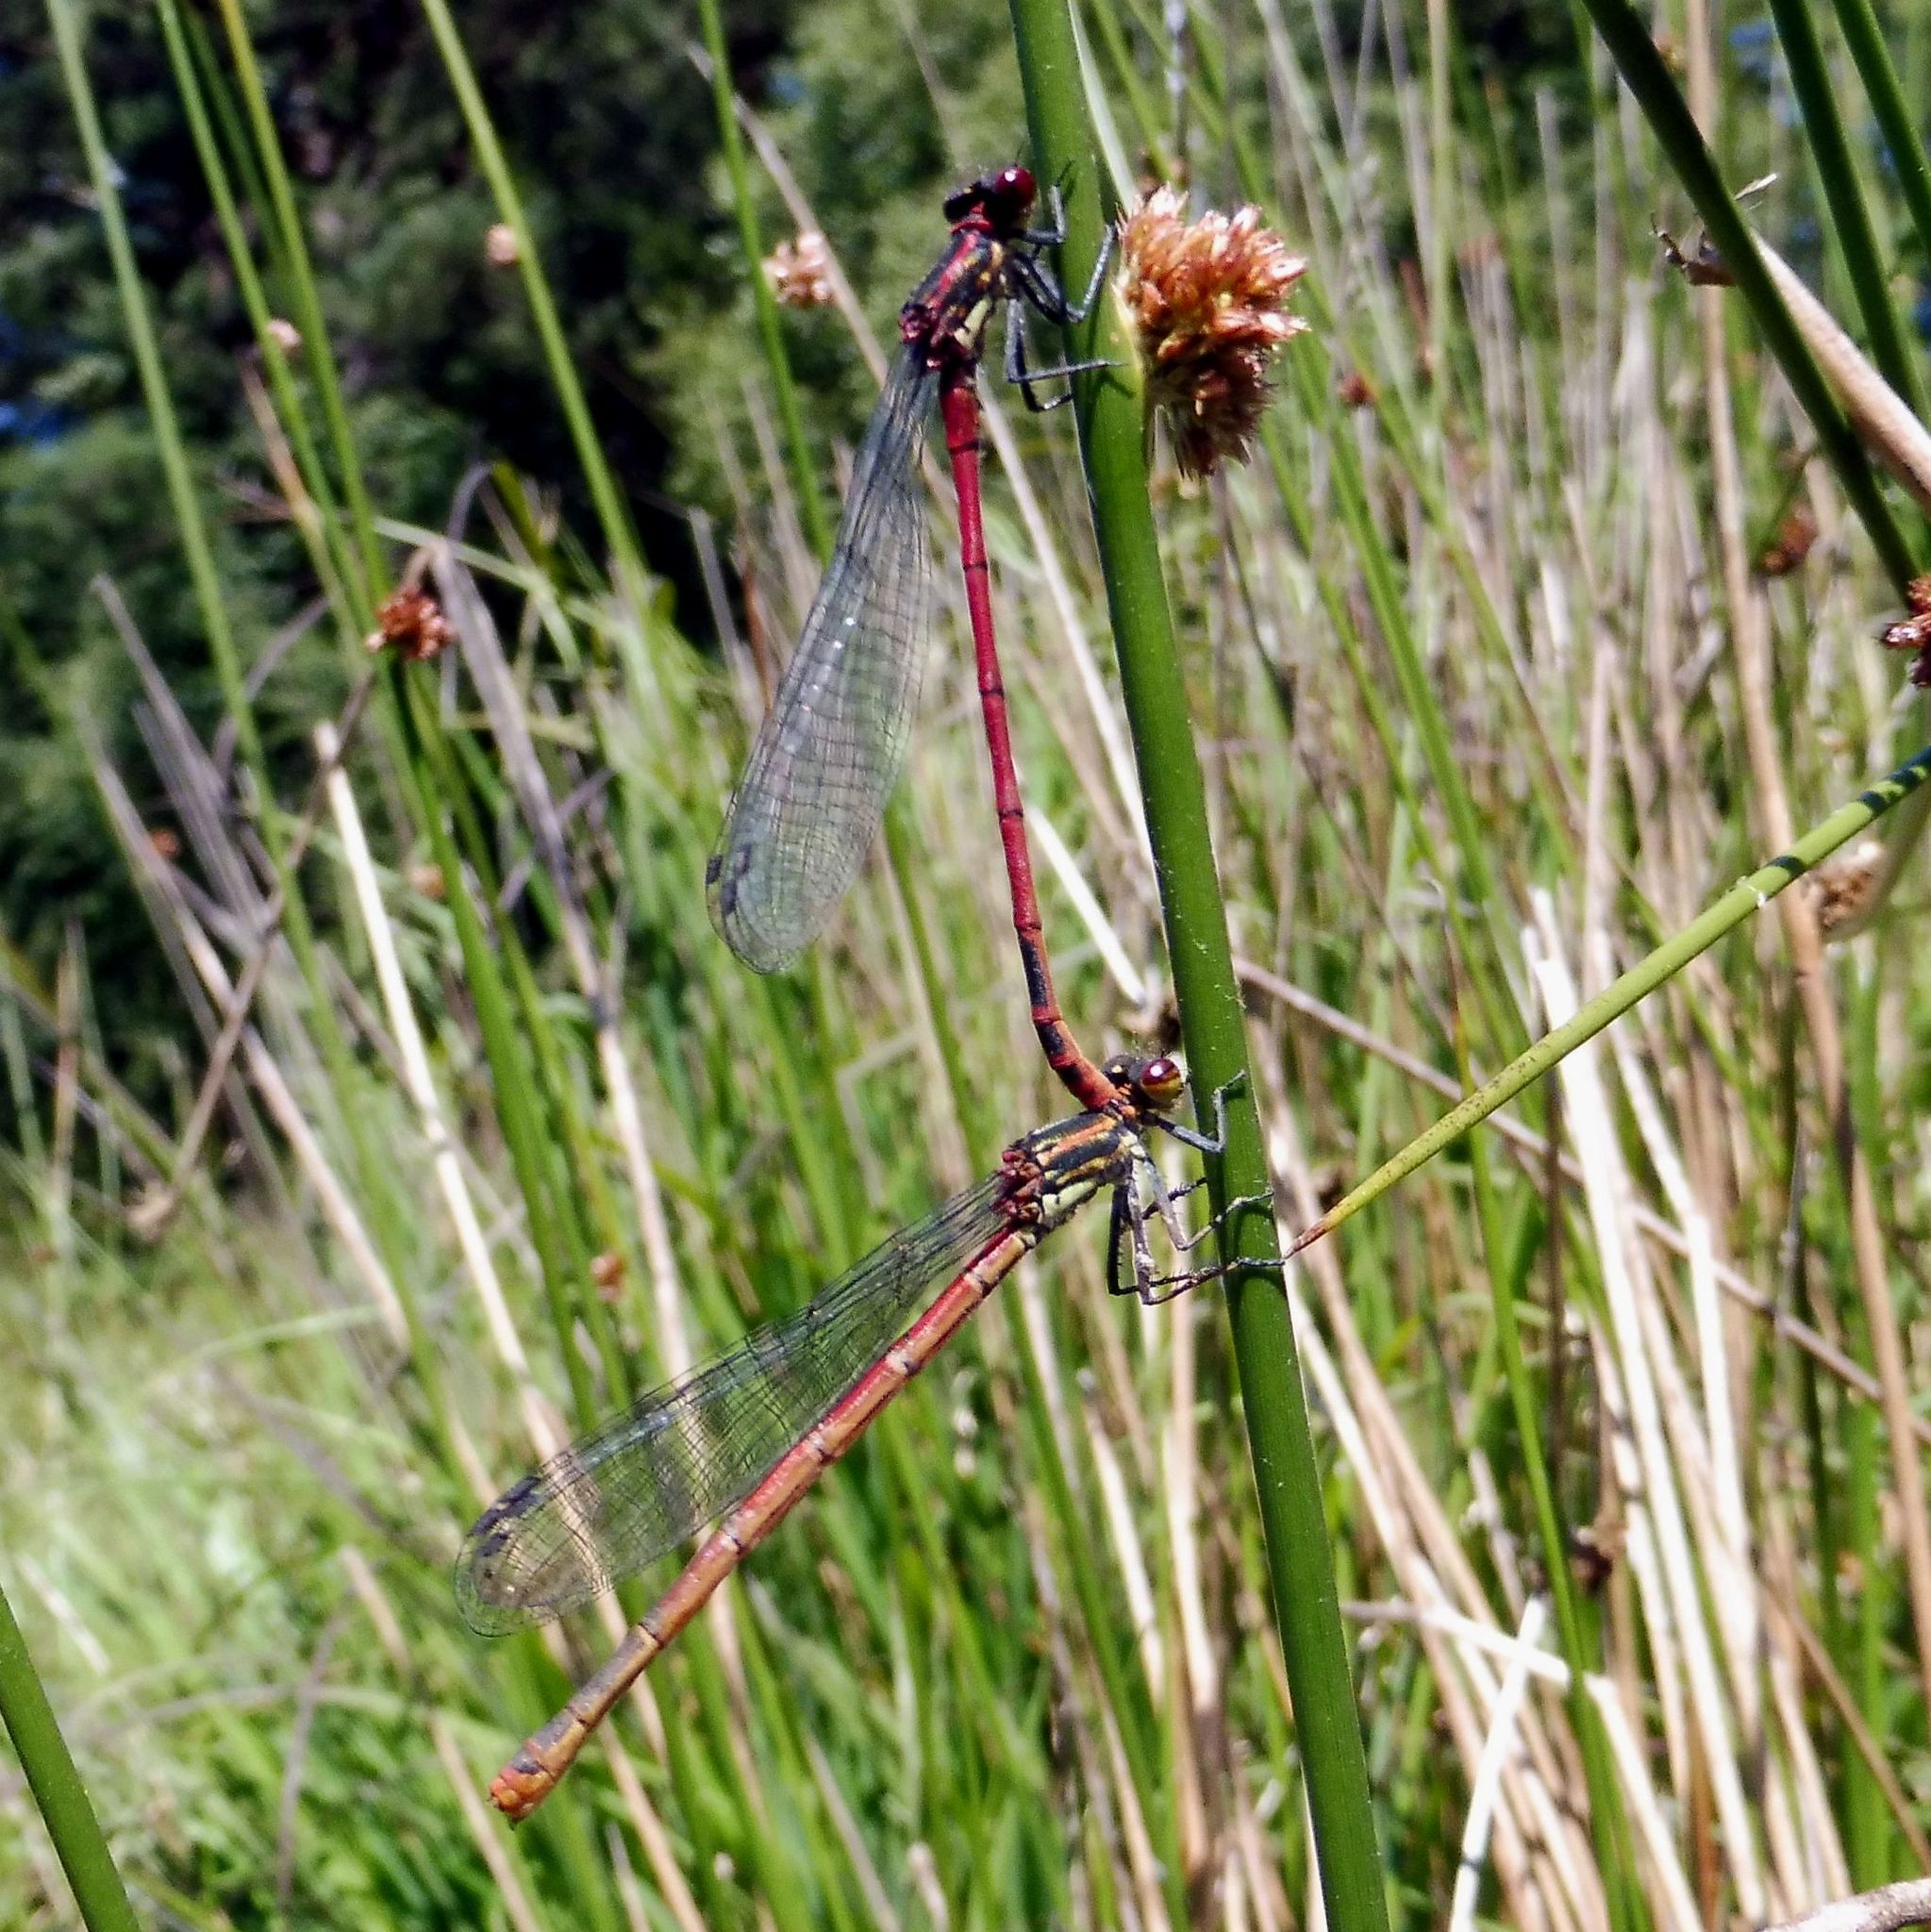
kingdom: Animalia
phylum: Arthropoda
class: Insecta
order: Odonata
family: Coenagrionidae
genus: Pyrrhosoma
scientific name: Pyrrhosoma nymphula
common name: Large red damsel
